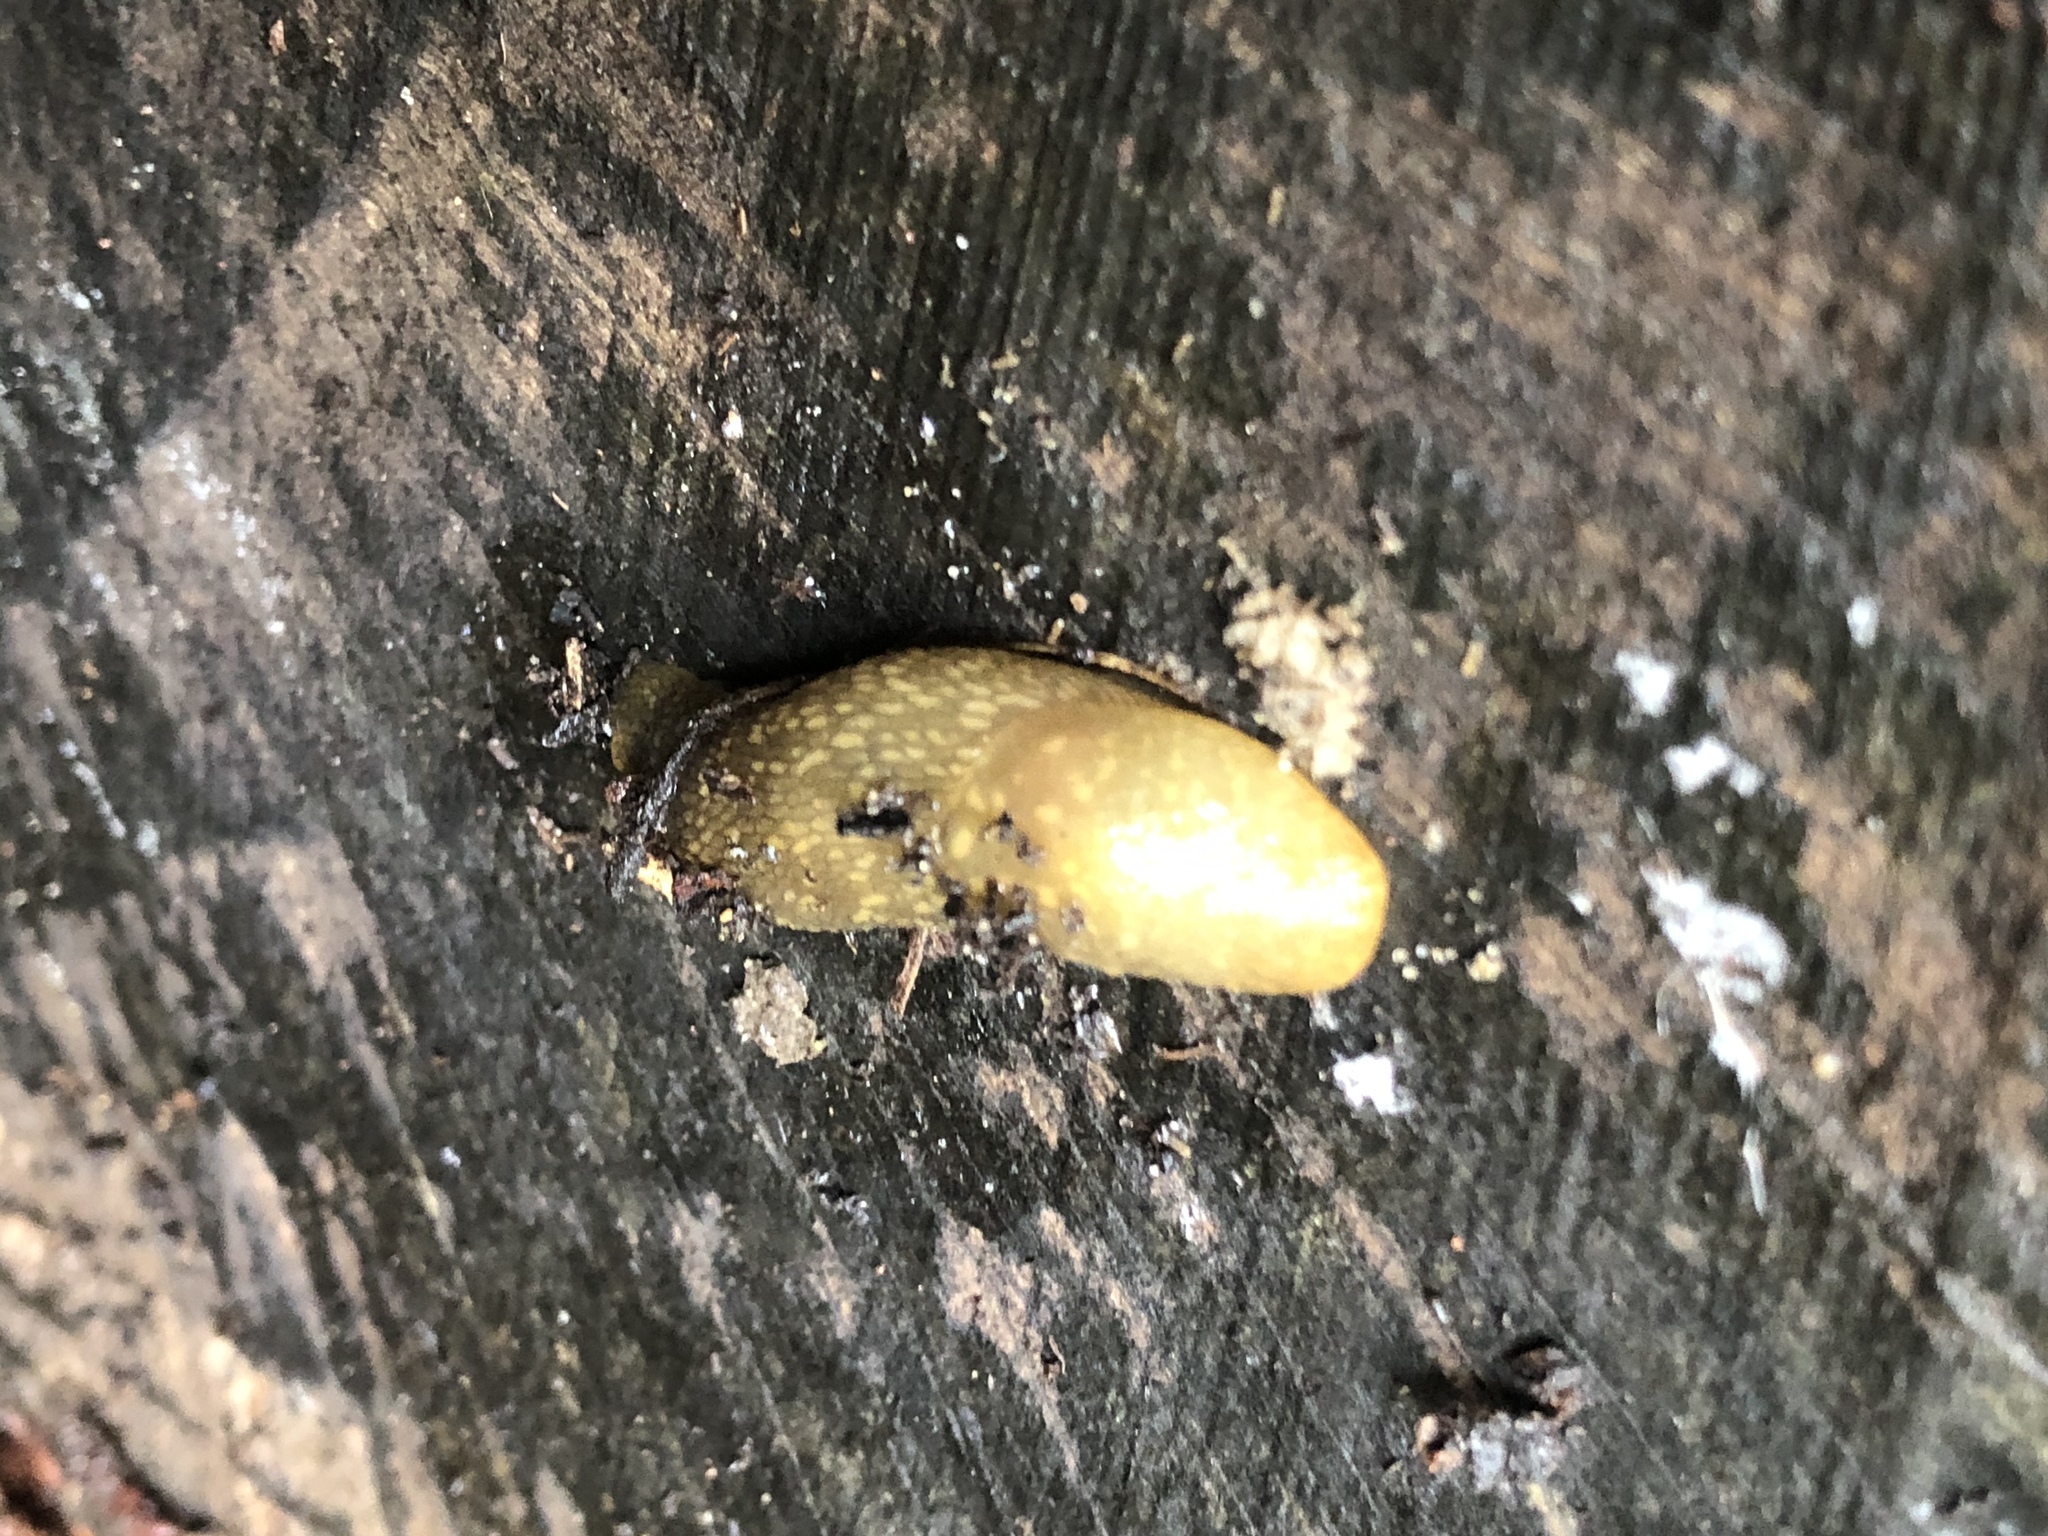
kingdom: Animalia
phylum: Mollusca
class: Gastropoda
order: Stylommatophora
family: Limacidae
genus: Limacus
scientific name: Limacus flavus
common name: Yellow gardenslug
